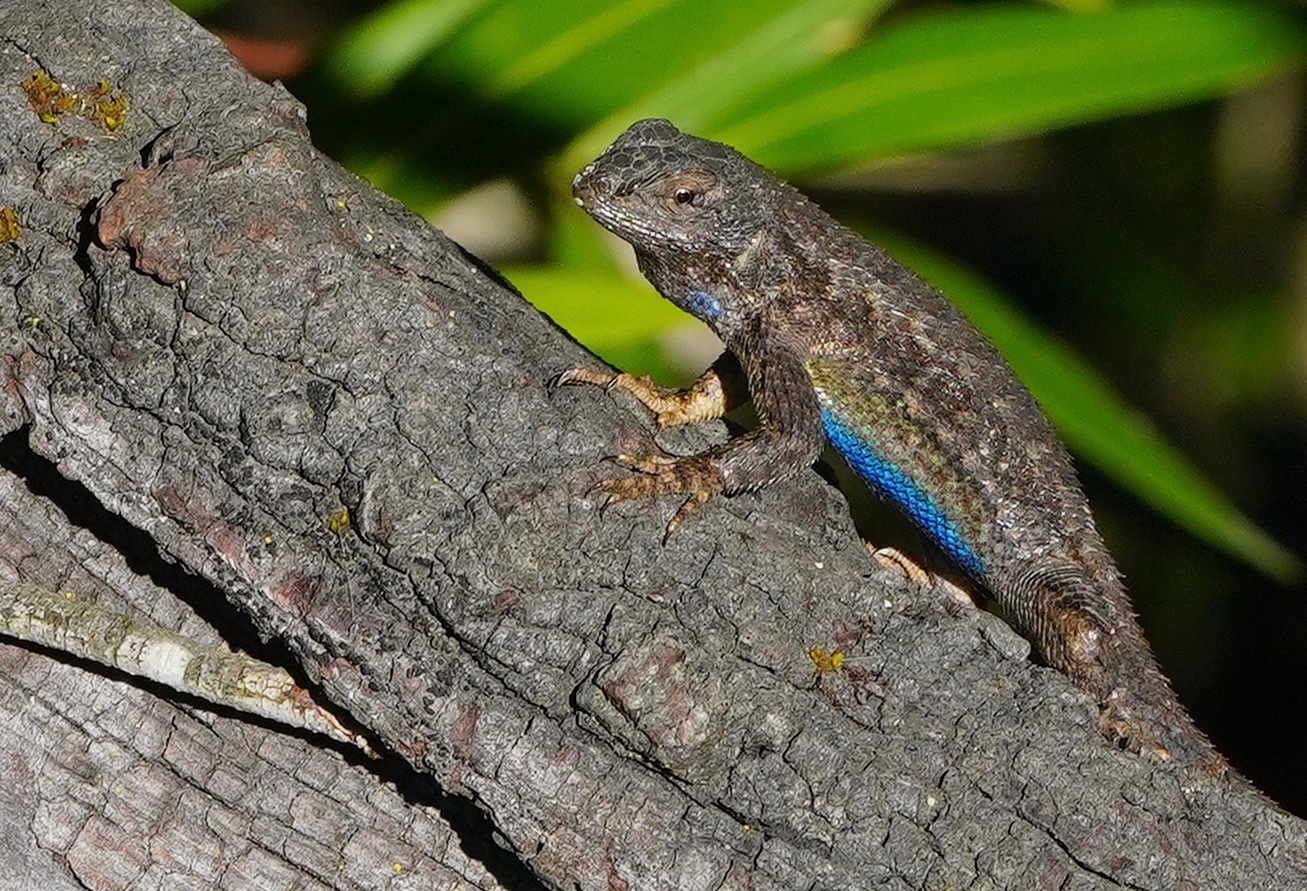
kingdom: Animalia
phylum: Chordata
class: Squamata
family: Phrynosomatidae
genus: Sceloporus
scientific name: Sceloporus occidentalis
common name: Western fence lizard
